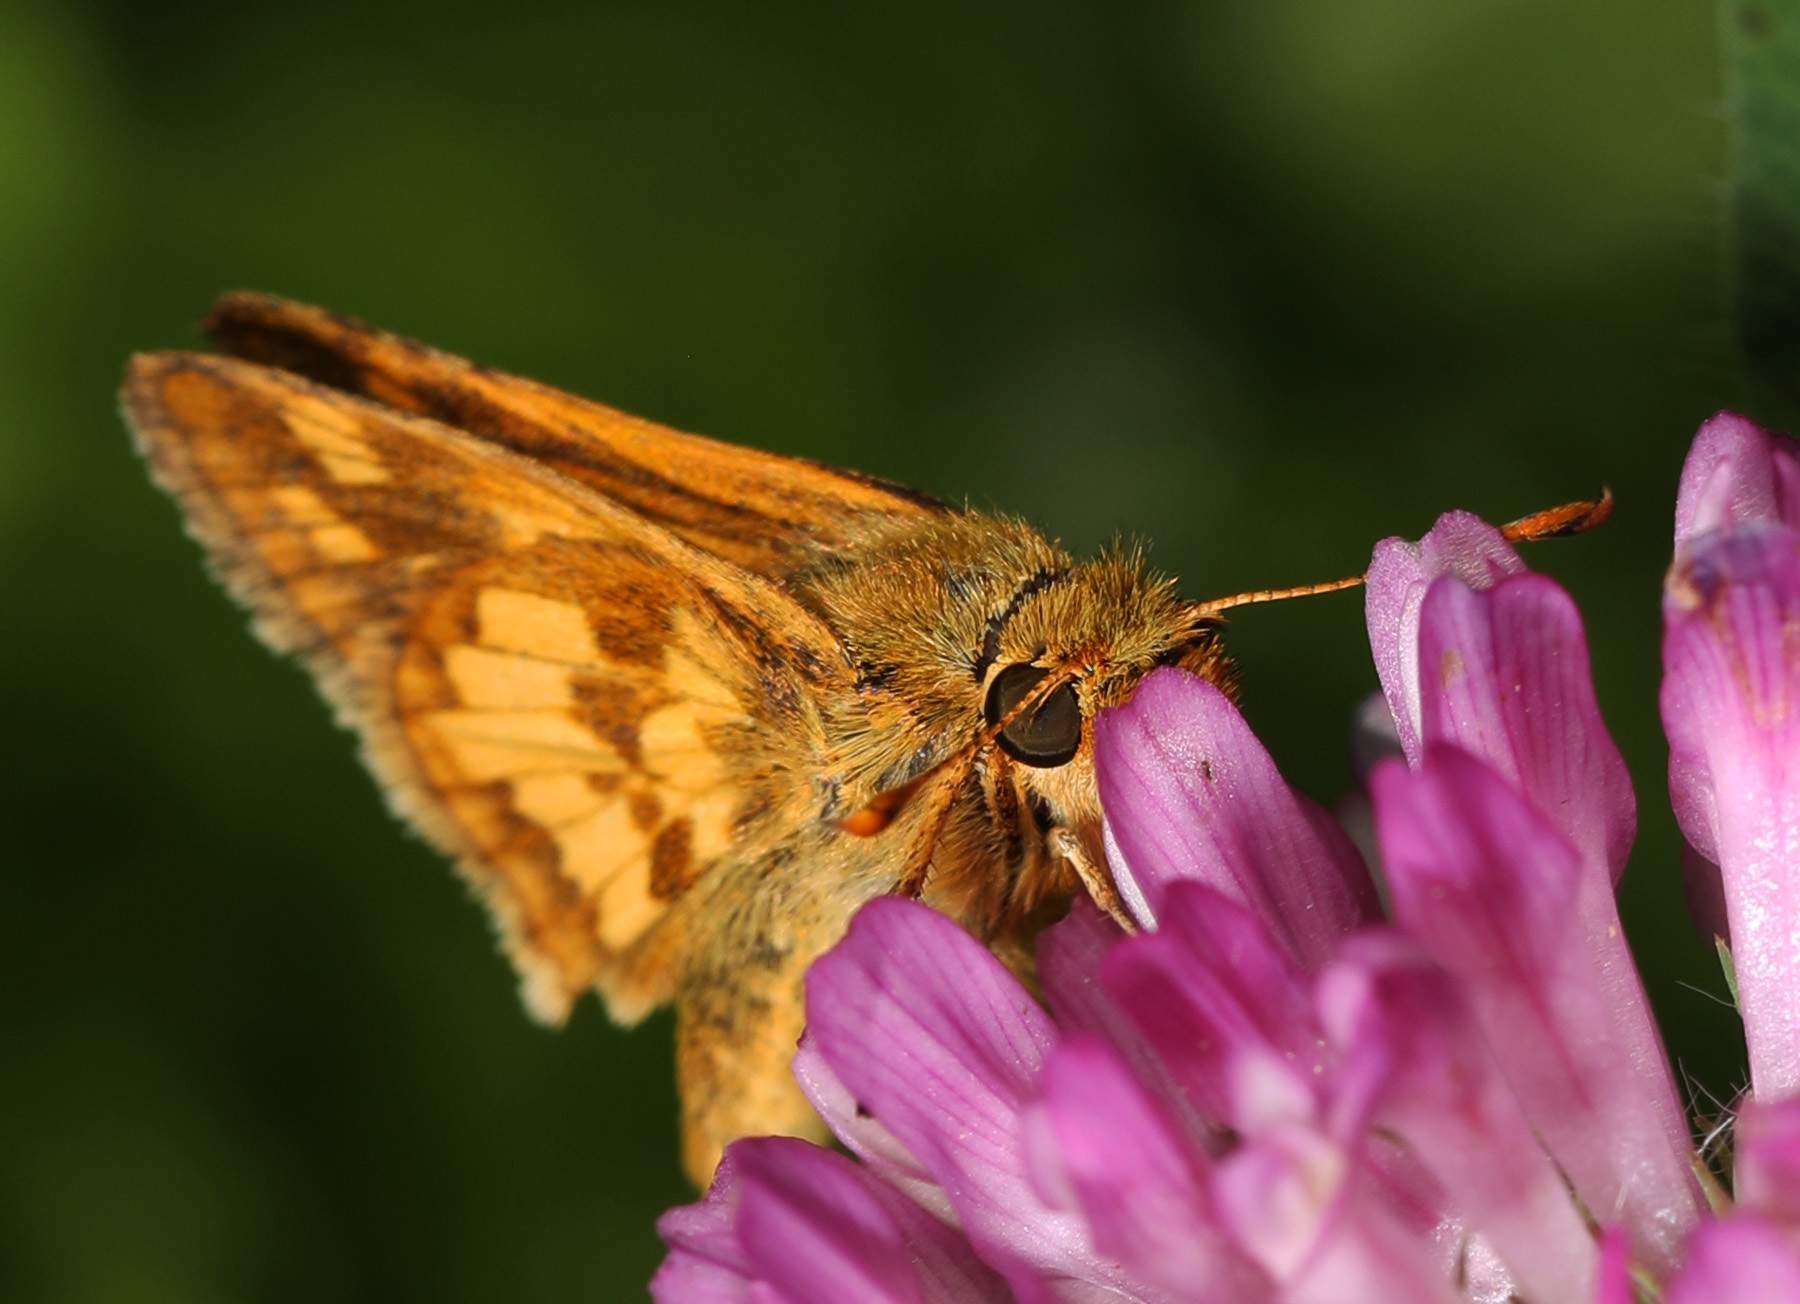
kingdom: Animalia
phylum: Arthropoda
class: Insecta
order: Lepidoptera
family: Hesperiidae
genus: Polites
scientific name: Polites coras
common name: Peck's skipper
